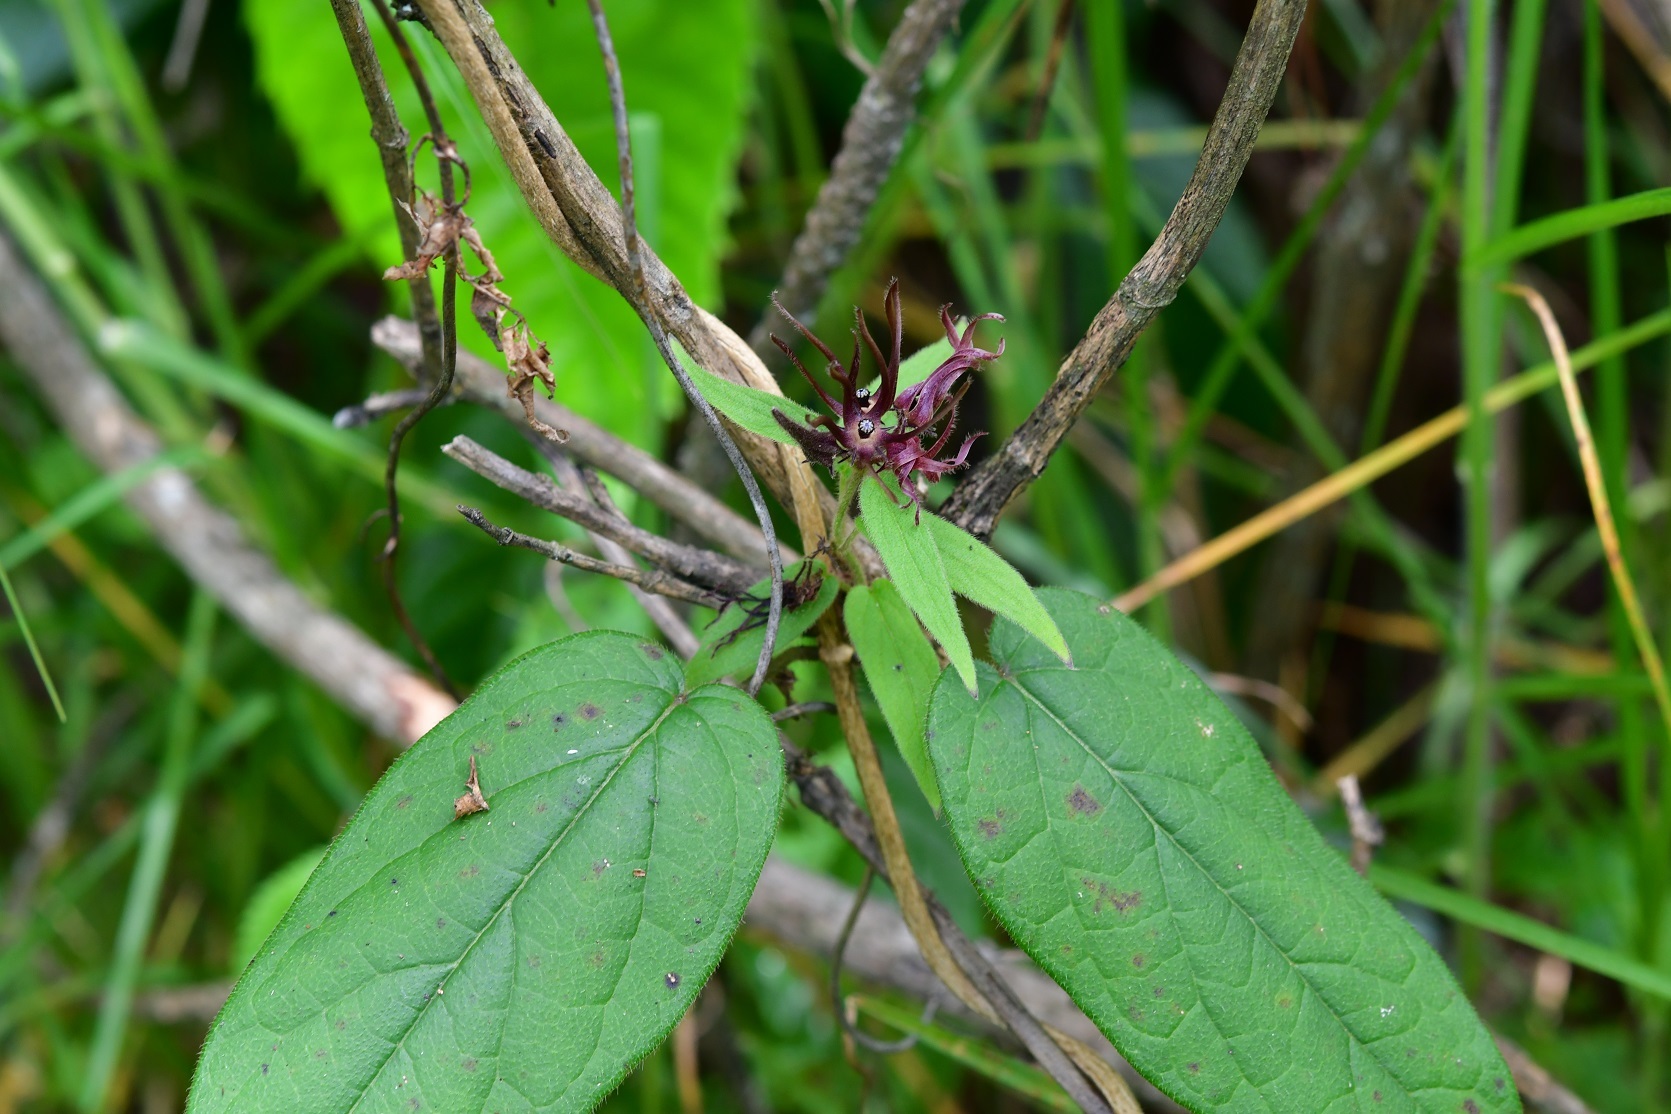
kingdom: Plantae
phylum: Tracheophyta
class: Magnoliopsida
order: Gentianales
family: Apocynaceae
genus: Matelea
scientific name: Matelea medusae
